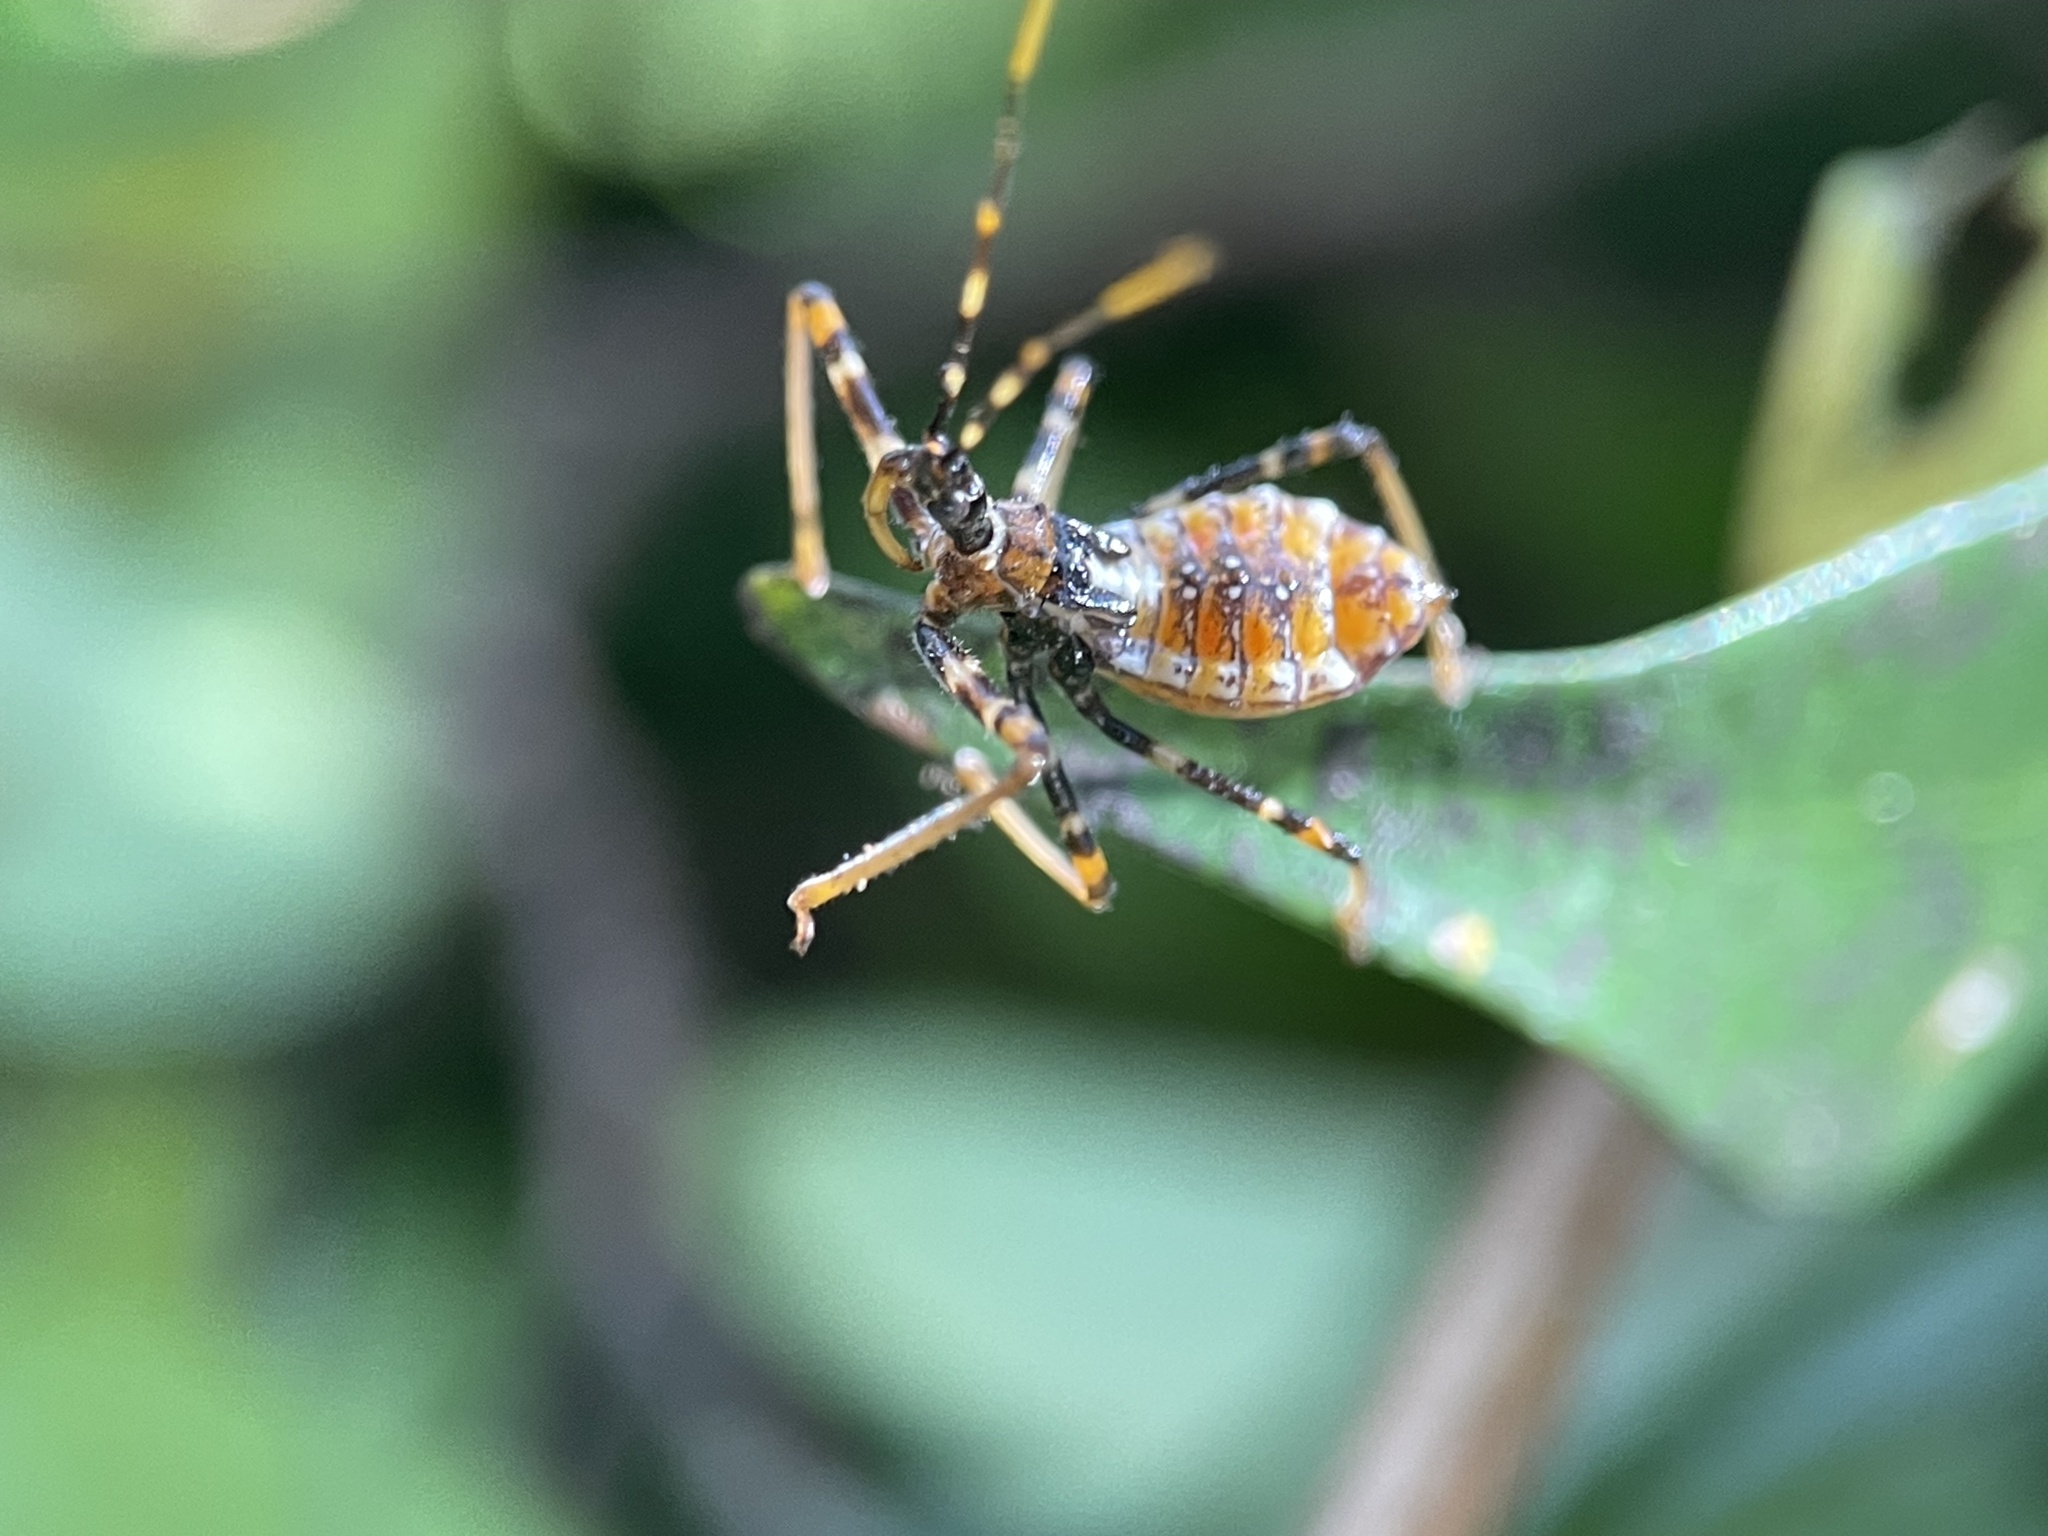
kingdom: Animalia
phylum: Arthropoda
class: Insecta
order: Hemiptera
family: Reduviidae
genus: Pristhesancus
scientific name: Pristhesancus plagipennis
